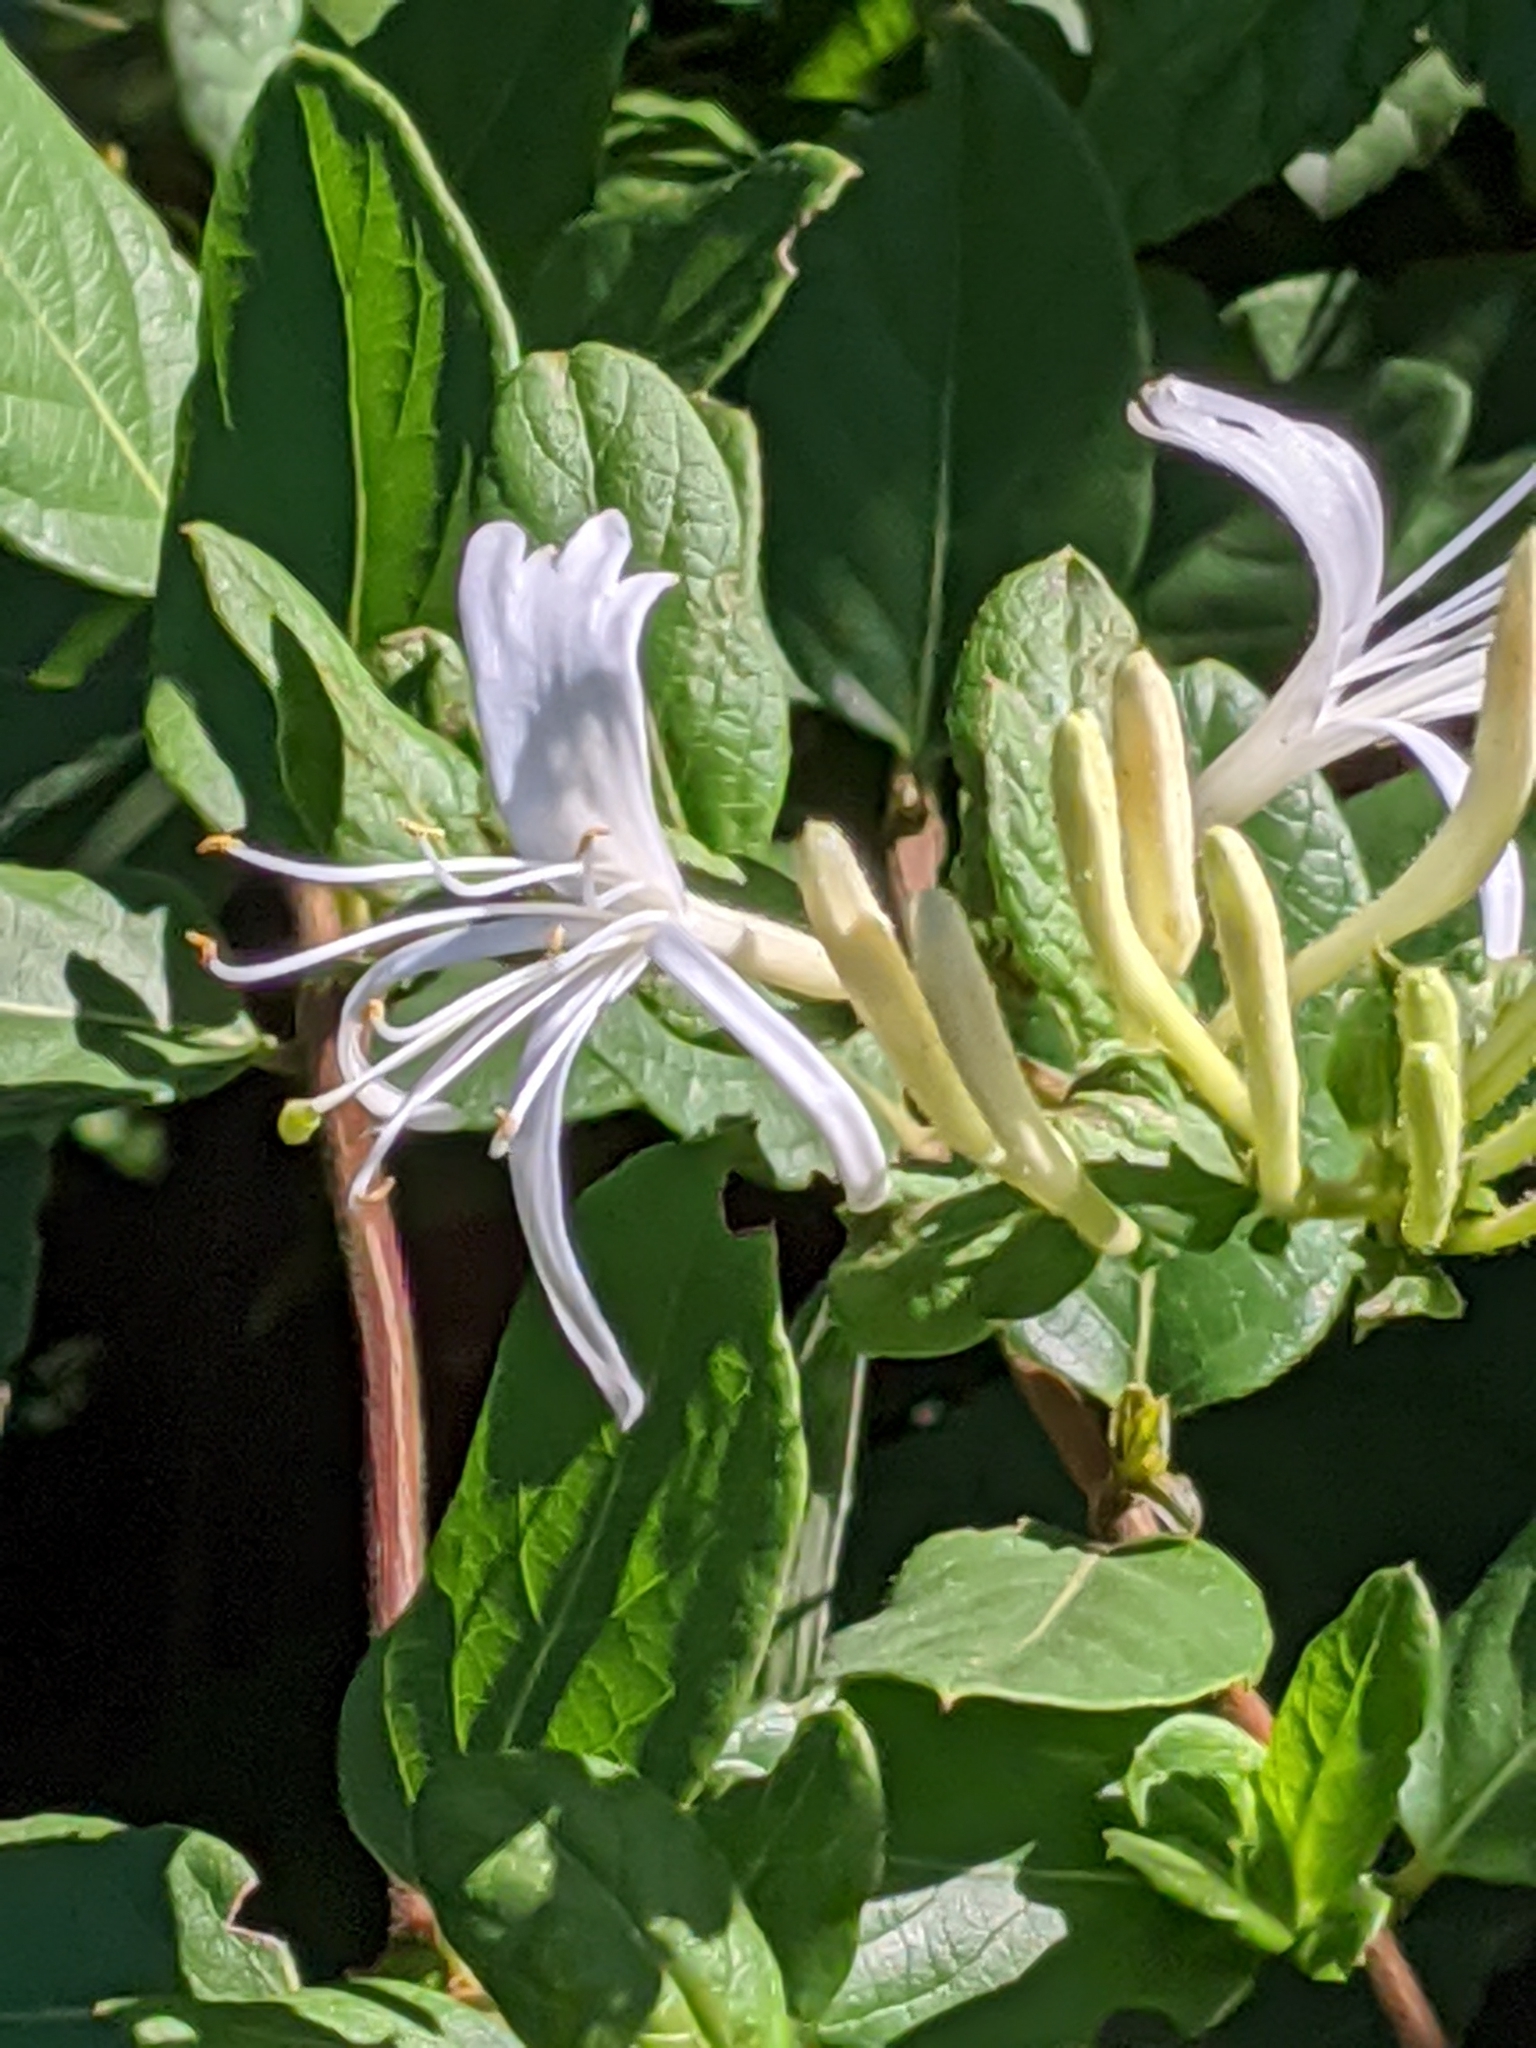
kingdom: Plantae
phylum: Tracheophyta
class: Magnoliopsida
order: Dipsacales
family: Caprifoliaceae
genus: Lonicera
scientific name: Lonicera japonica
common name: Japanese honeysuckle
